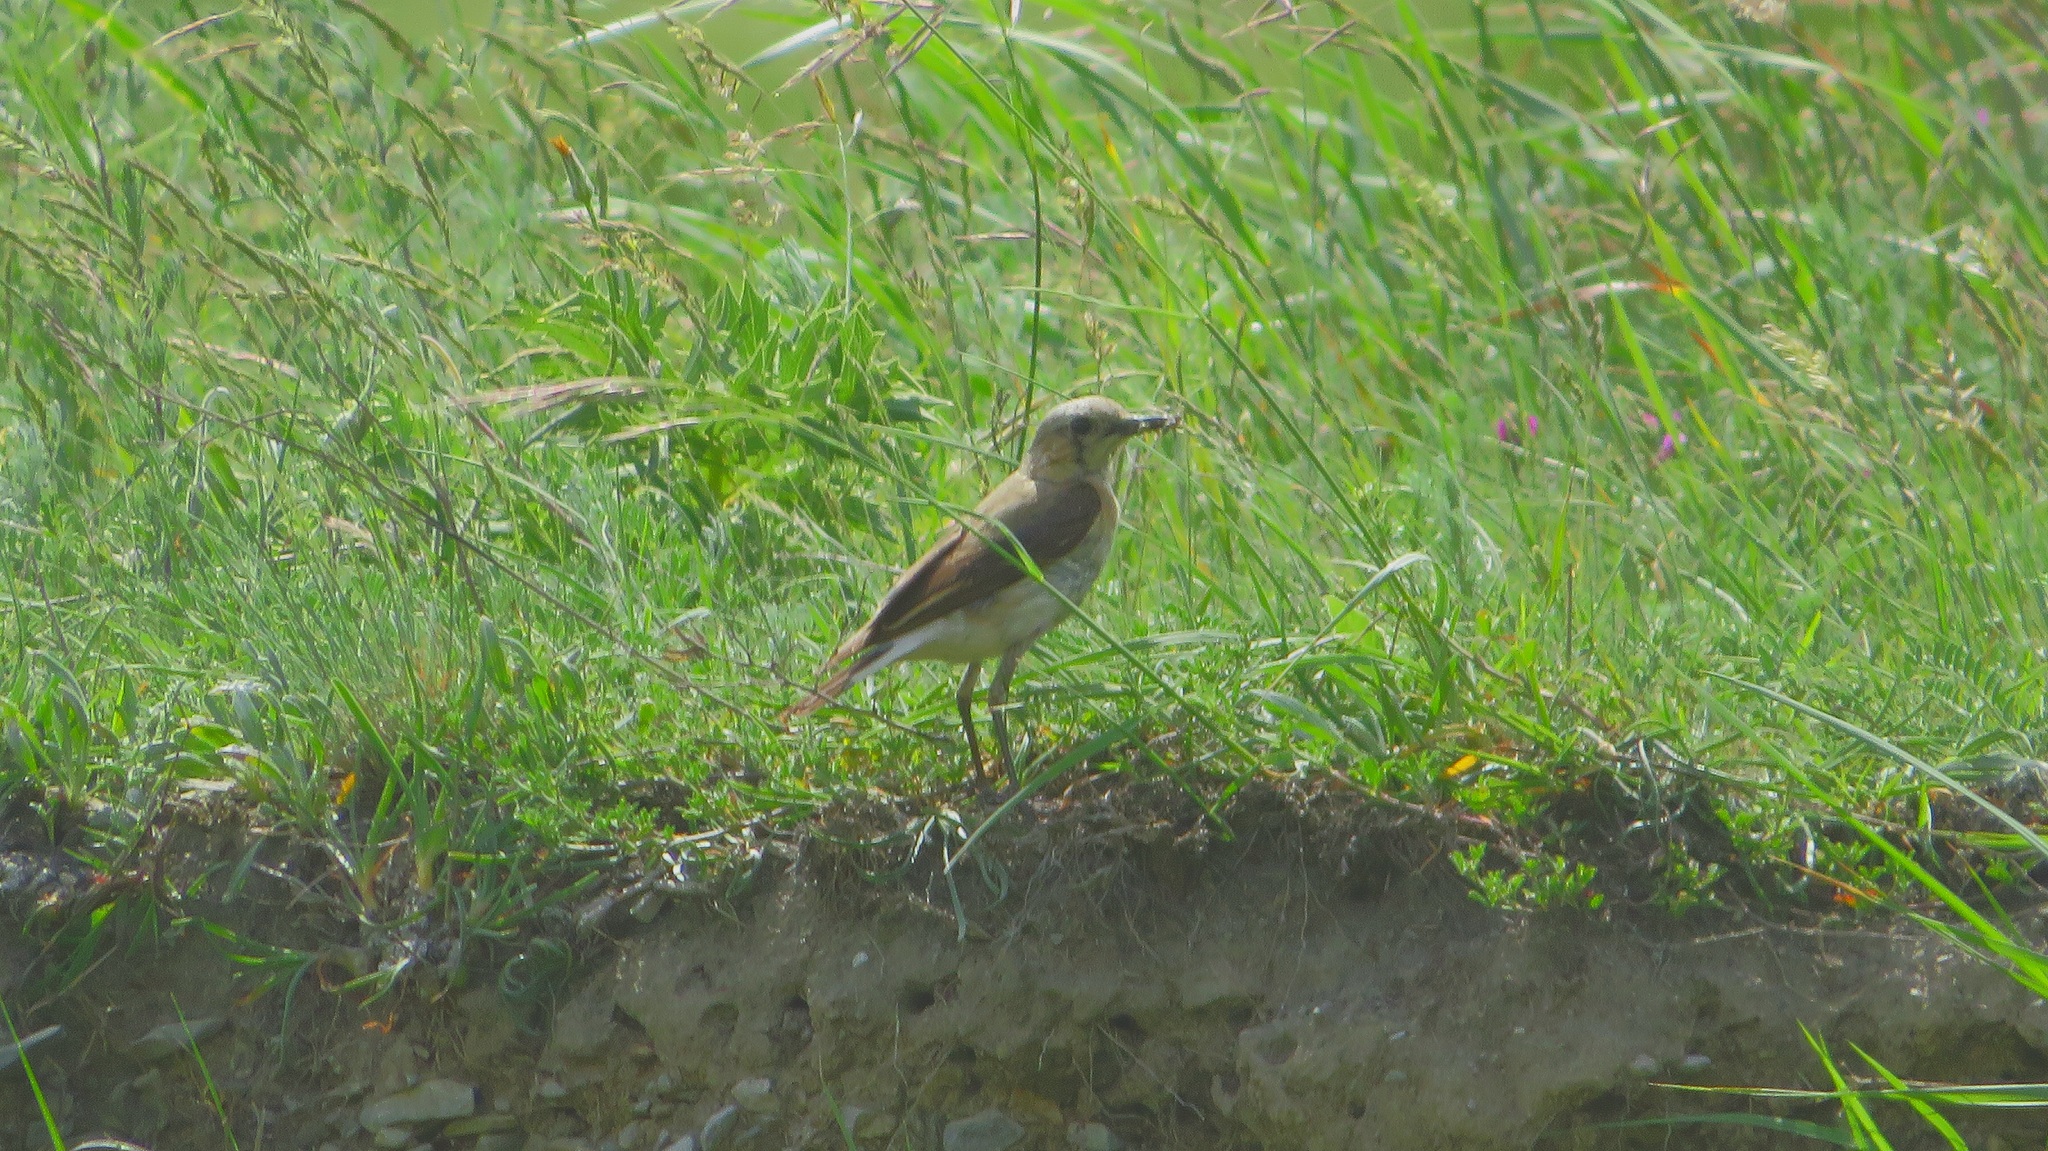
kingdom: Animalia
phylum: Chordata
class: Aves
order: Passeriformes
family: Muscicapidae
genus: Oenanthe
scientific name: Oenanthe oenanthe
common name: Northern wheatear
